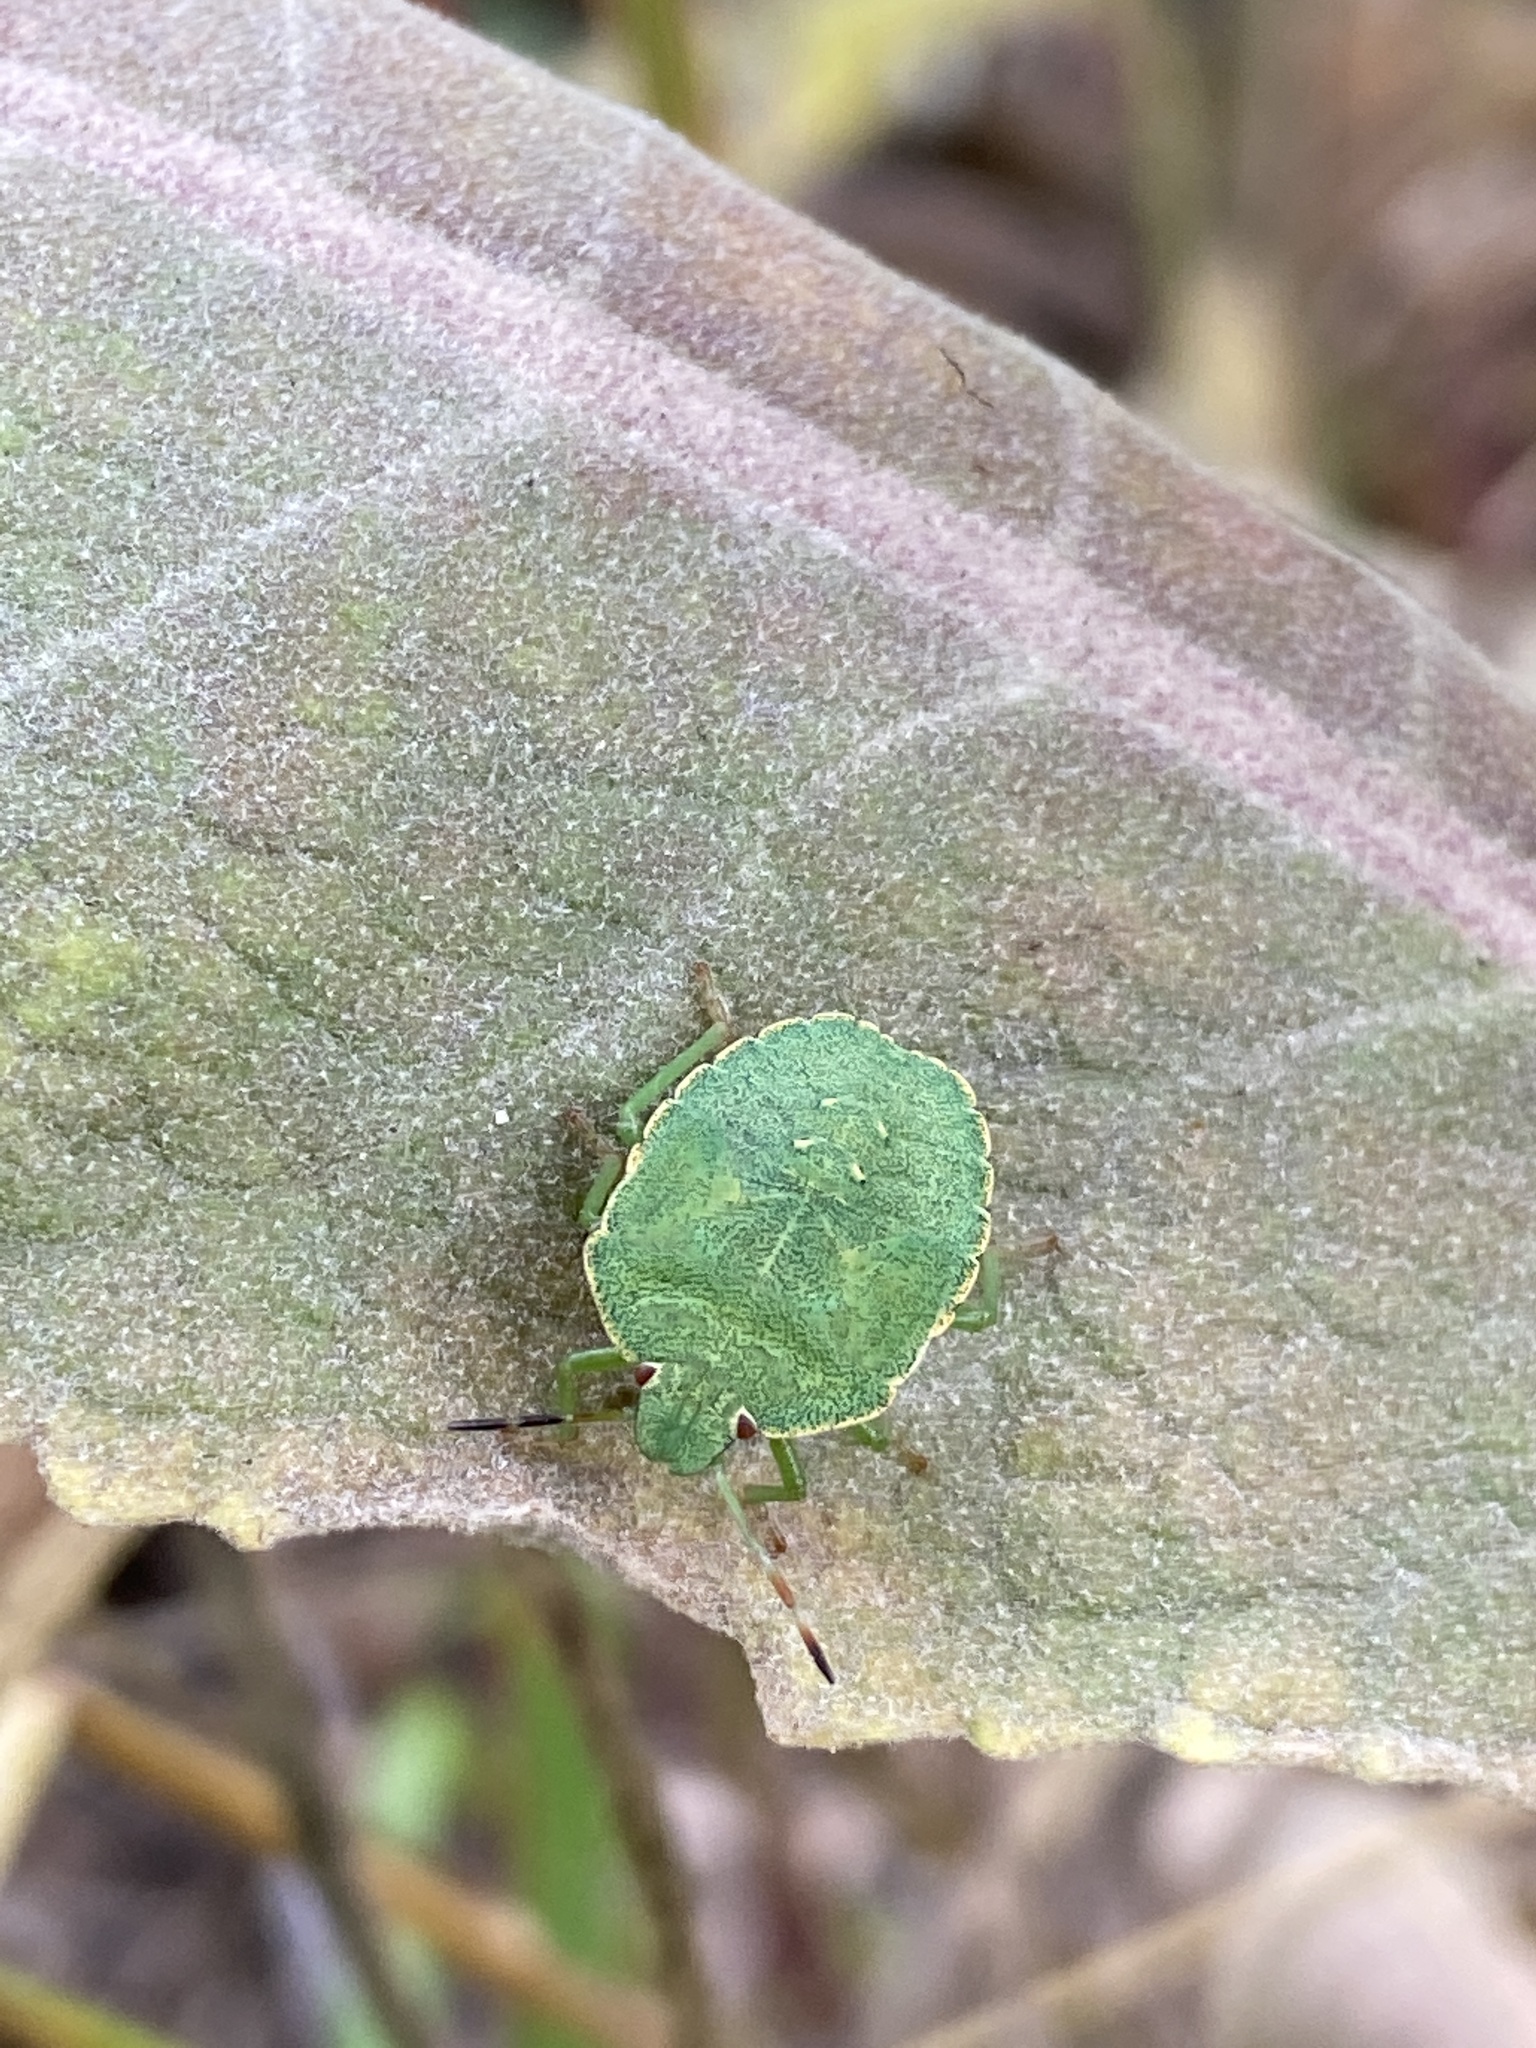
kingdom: Animalia
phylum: Arthropoda
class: Insecta
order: Hemiptera
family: Pentatomidae
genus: Palomena
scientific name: Palomena prasina
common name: Green shieldbug
